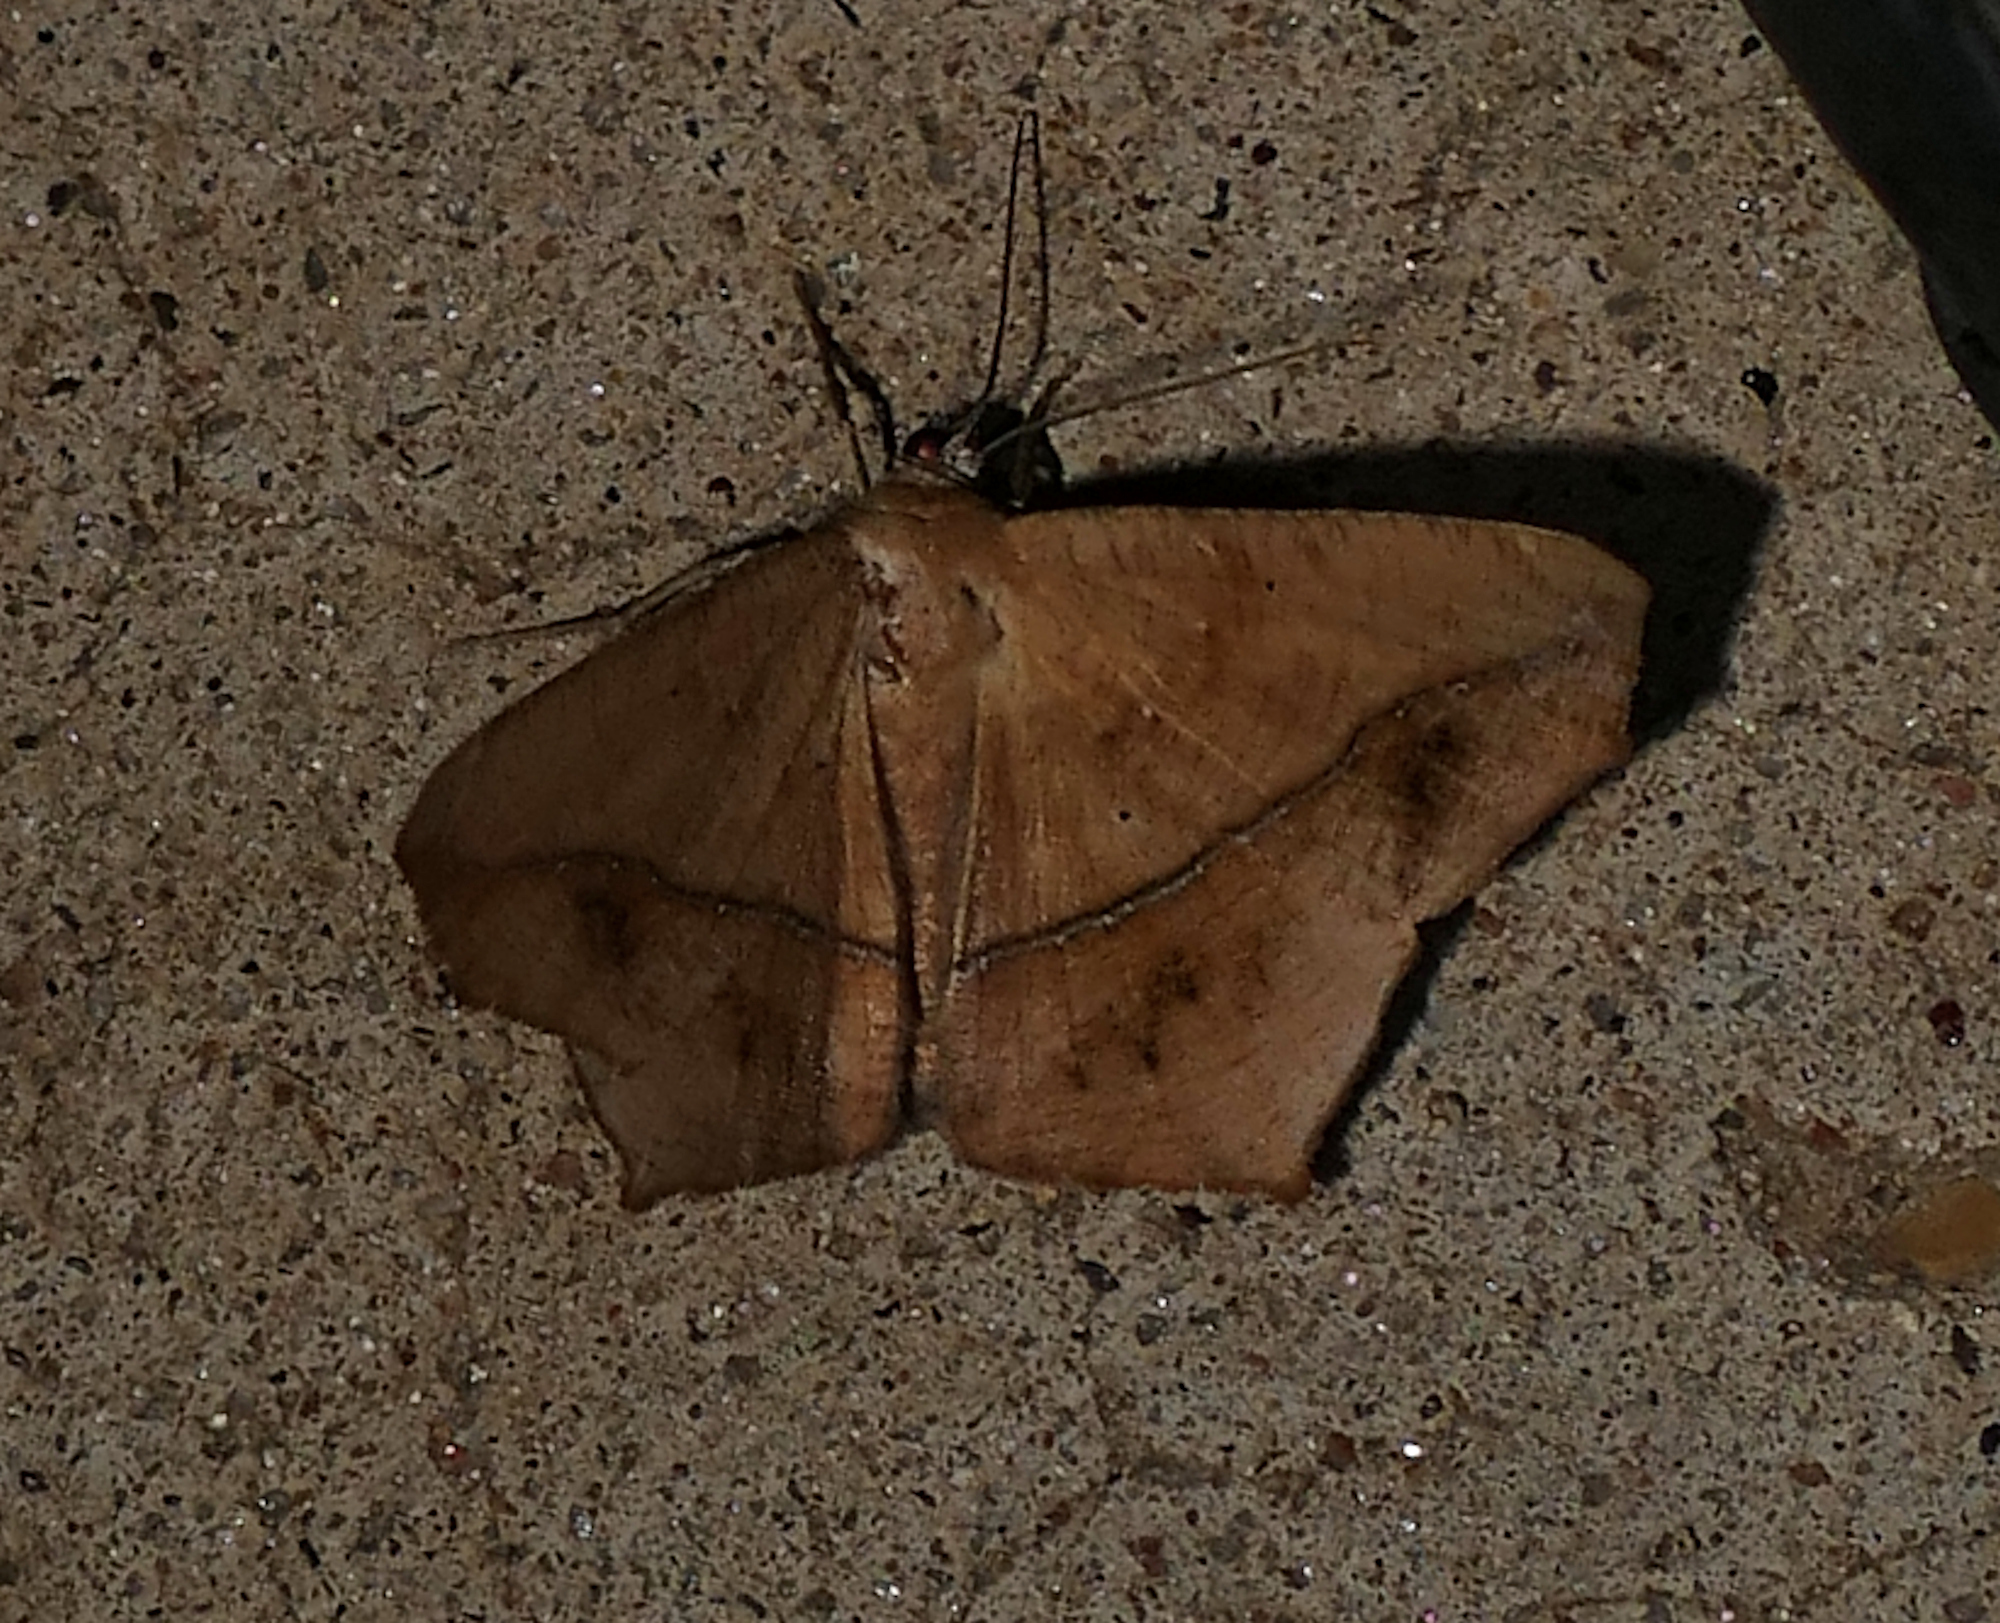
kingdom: Animalia
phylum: Arthropoda
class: Insecta
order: Lepidoptera
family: Geometridae
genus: Prochoerodes
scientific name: Prochoerodes lineola
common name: Large maple spanworm
